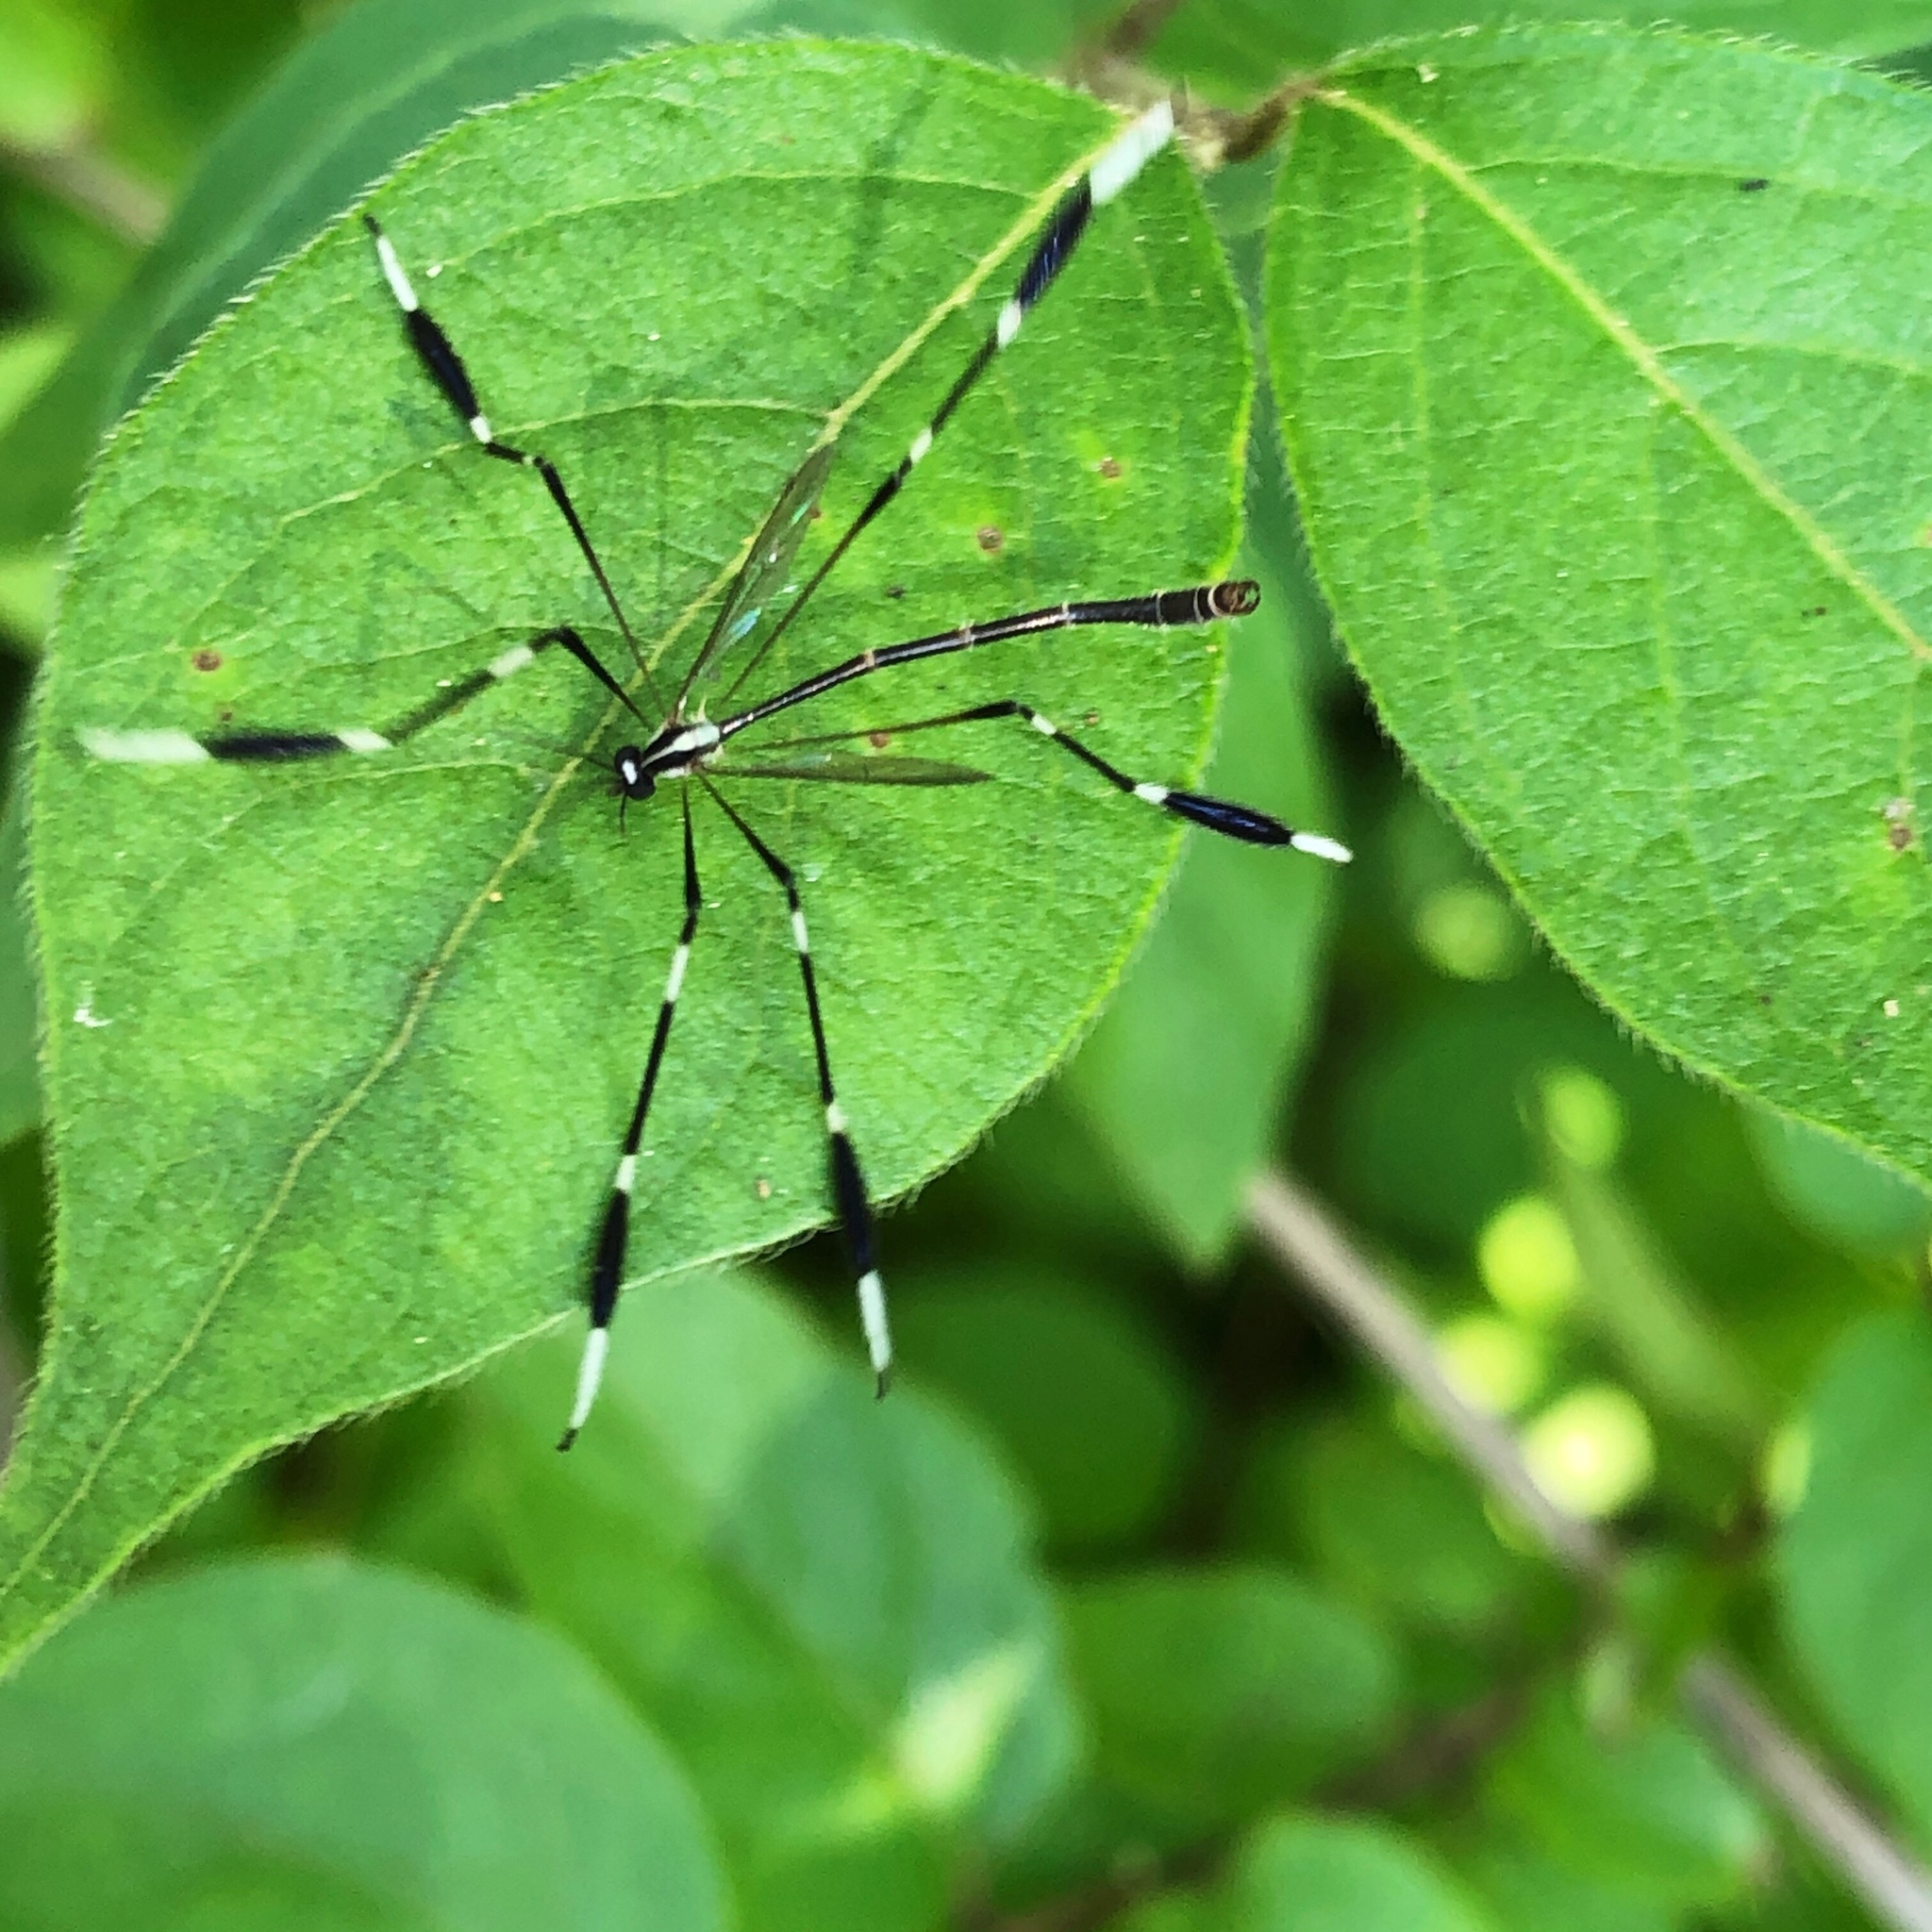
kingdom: Animalia
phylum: Arthropoda
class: Insecta
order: Diptera
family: Ptychopteridae
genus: Bittacomorpha
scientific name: Bittacomorpha clavipes
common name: Eastern phantom crane fly
